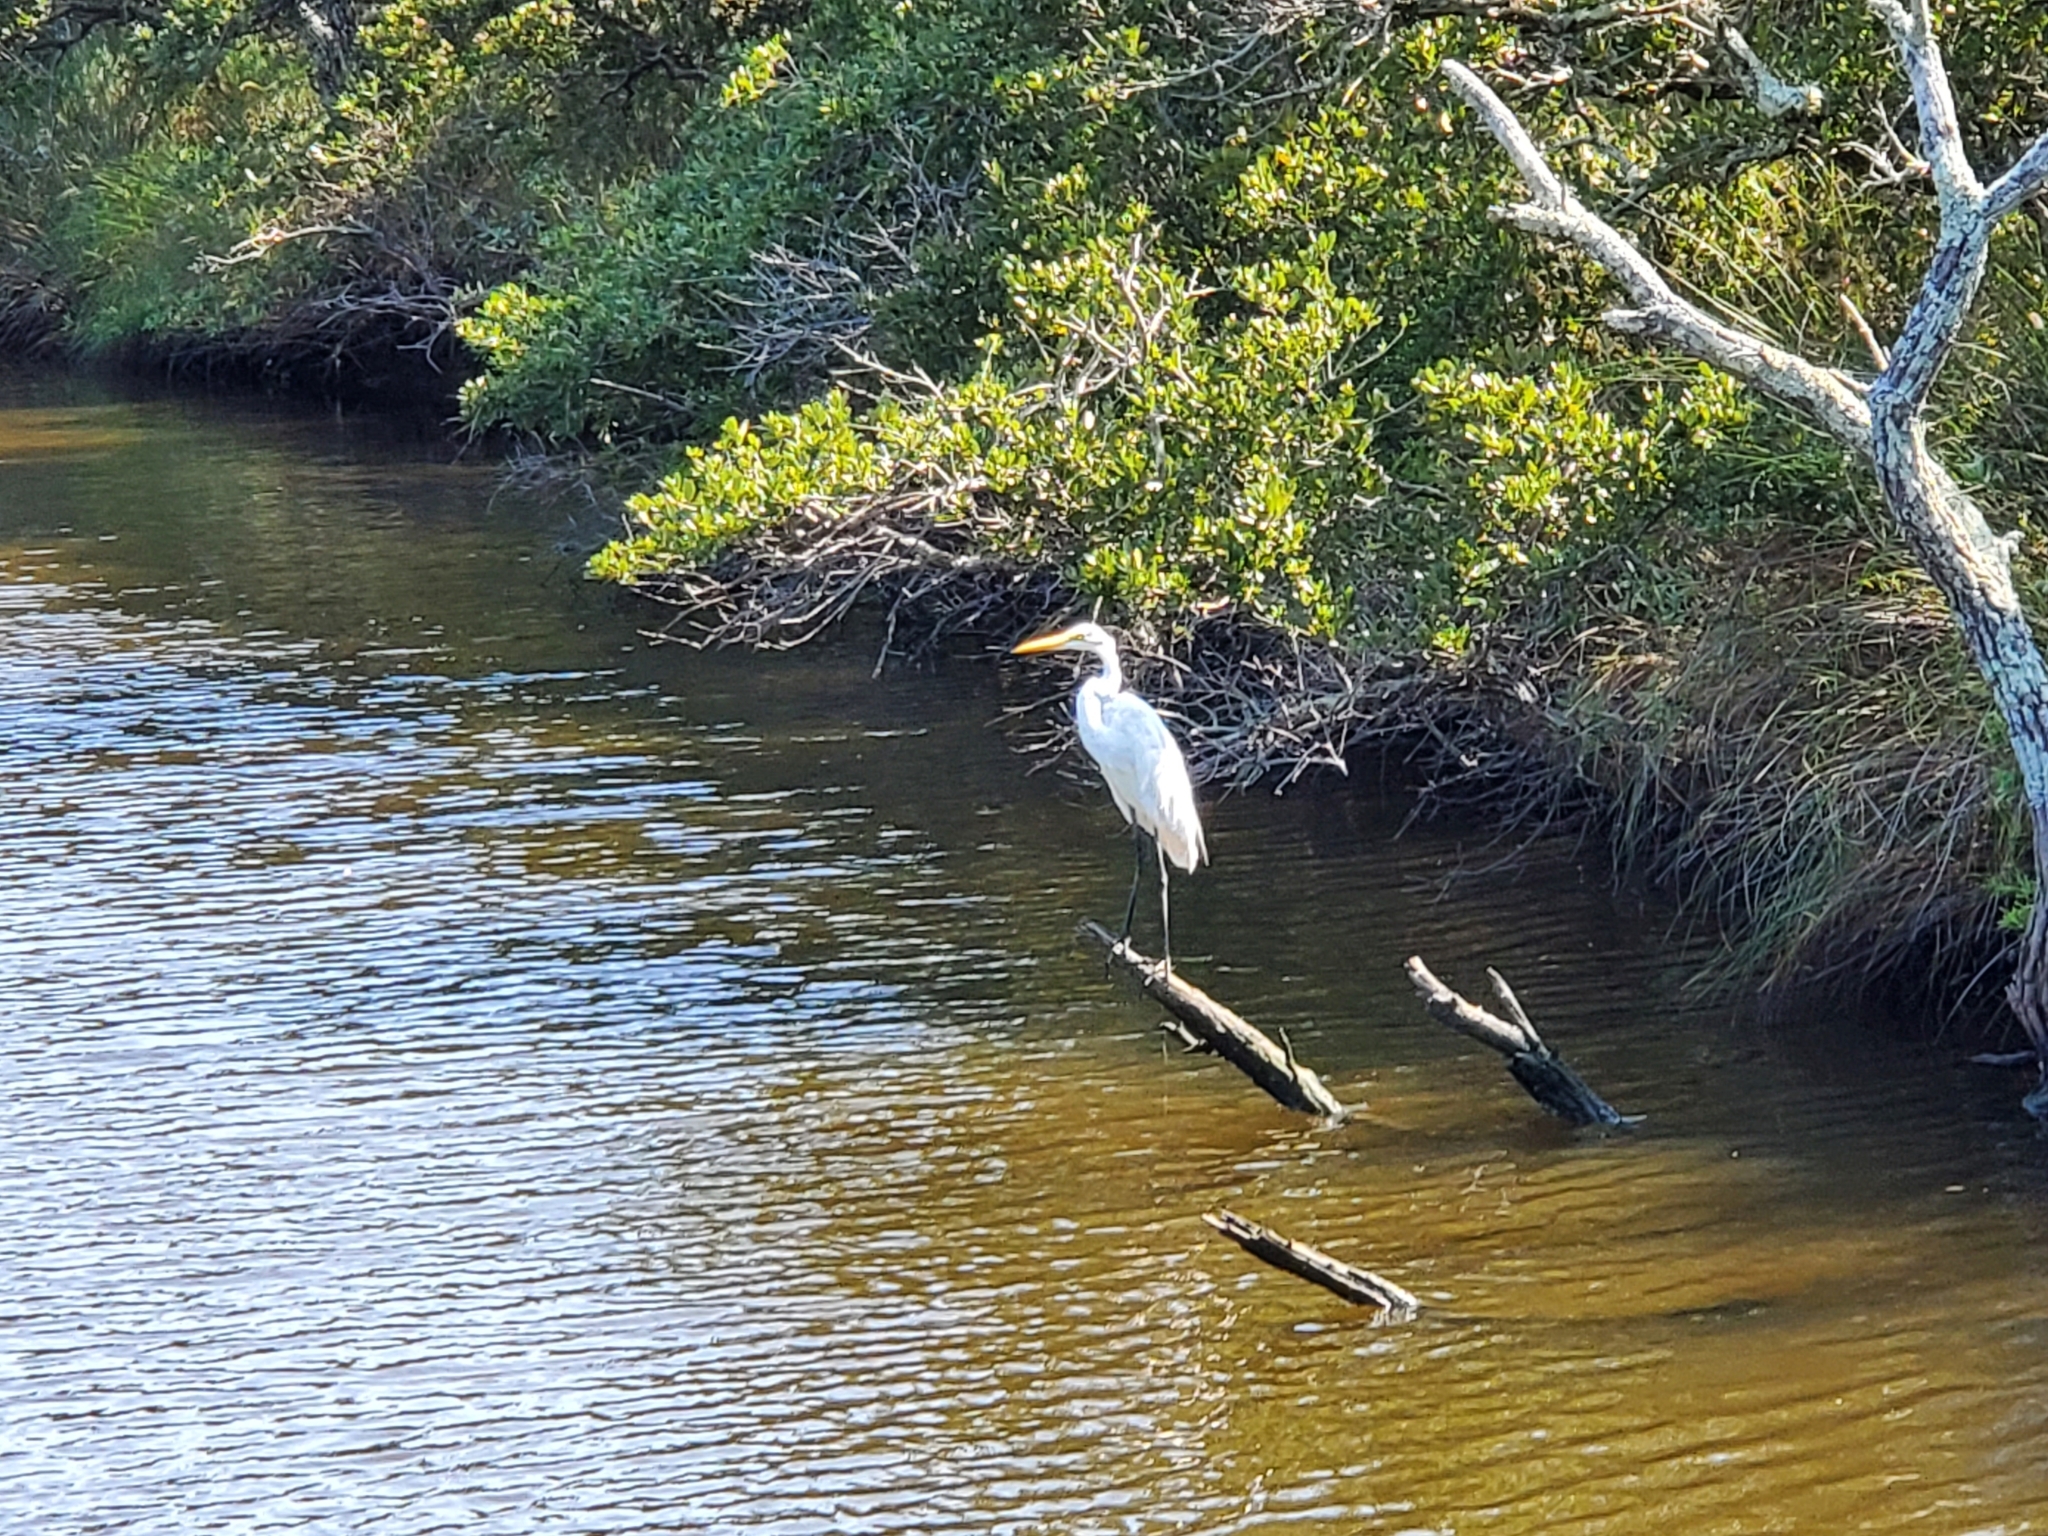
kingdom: Animalia
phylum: Chordata
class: Aves
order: Pelecaniformes
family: Ardeidae
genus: Ardea
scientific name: Ardea alba
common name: Great egret
